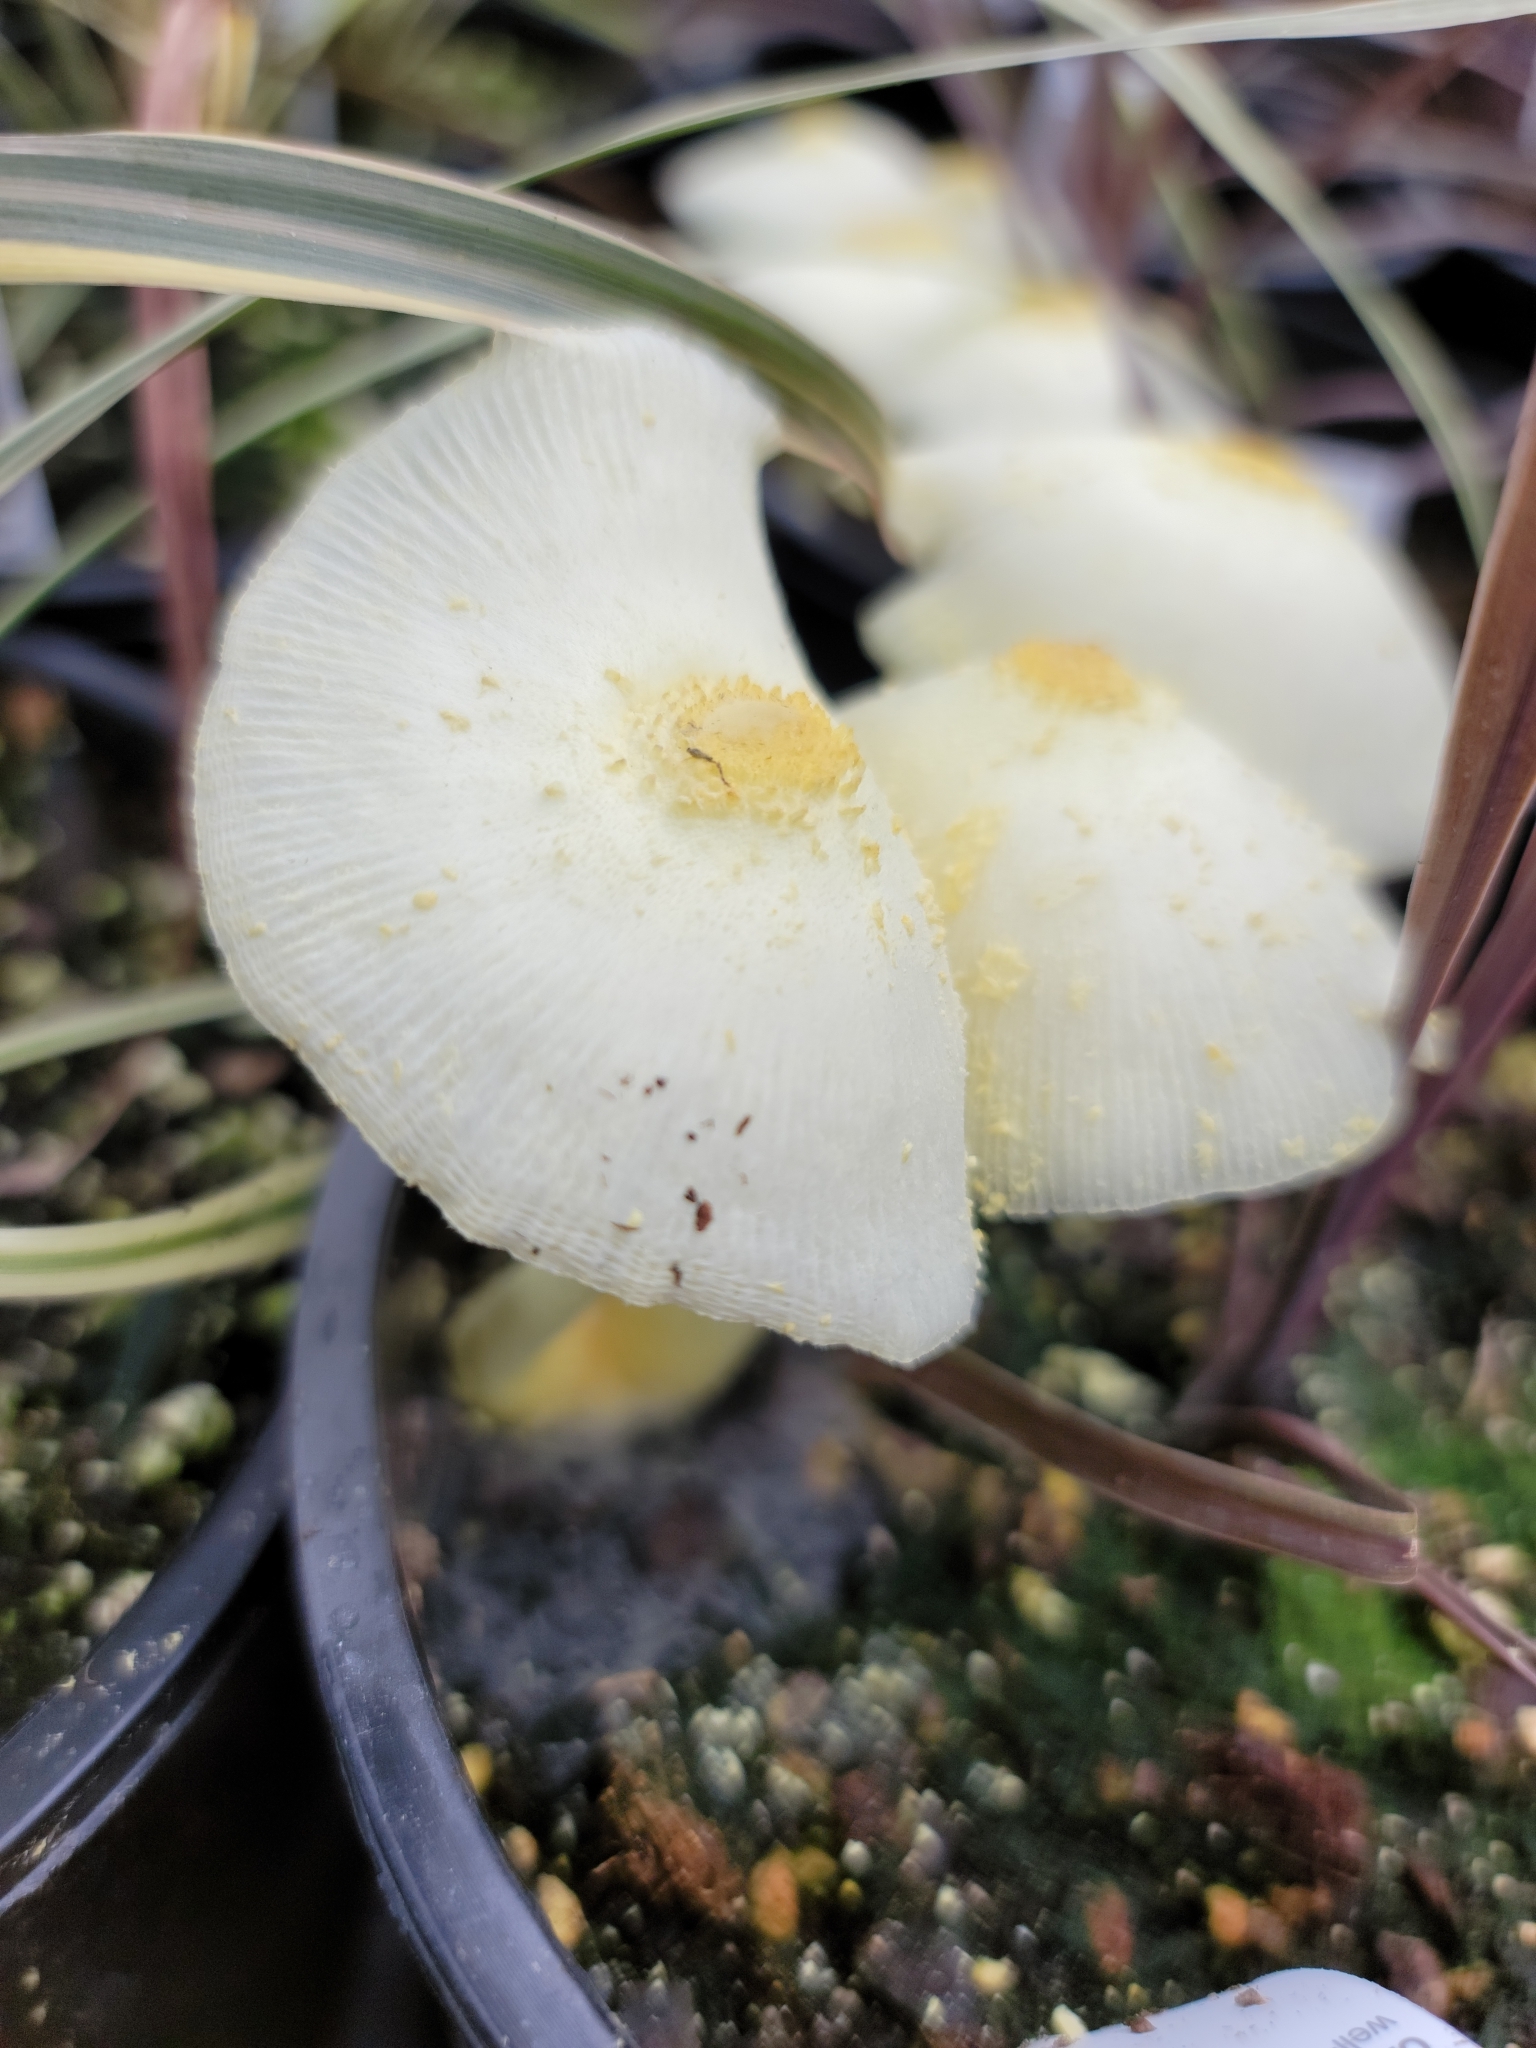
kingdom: Fungi
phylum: Basidiomycota
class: Agaricomycetes
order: Agaricales
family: Agaricaceae
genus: Leucocoprinus
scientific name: Leucocoprinus birnbaumii
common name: Plantpot dapperling
